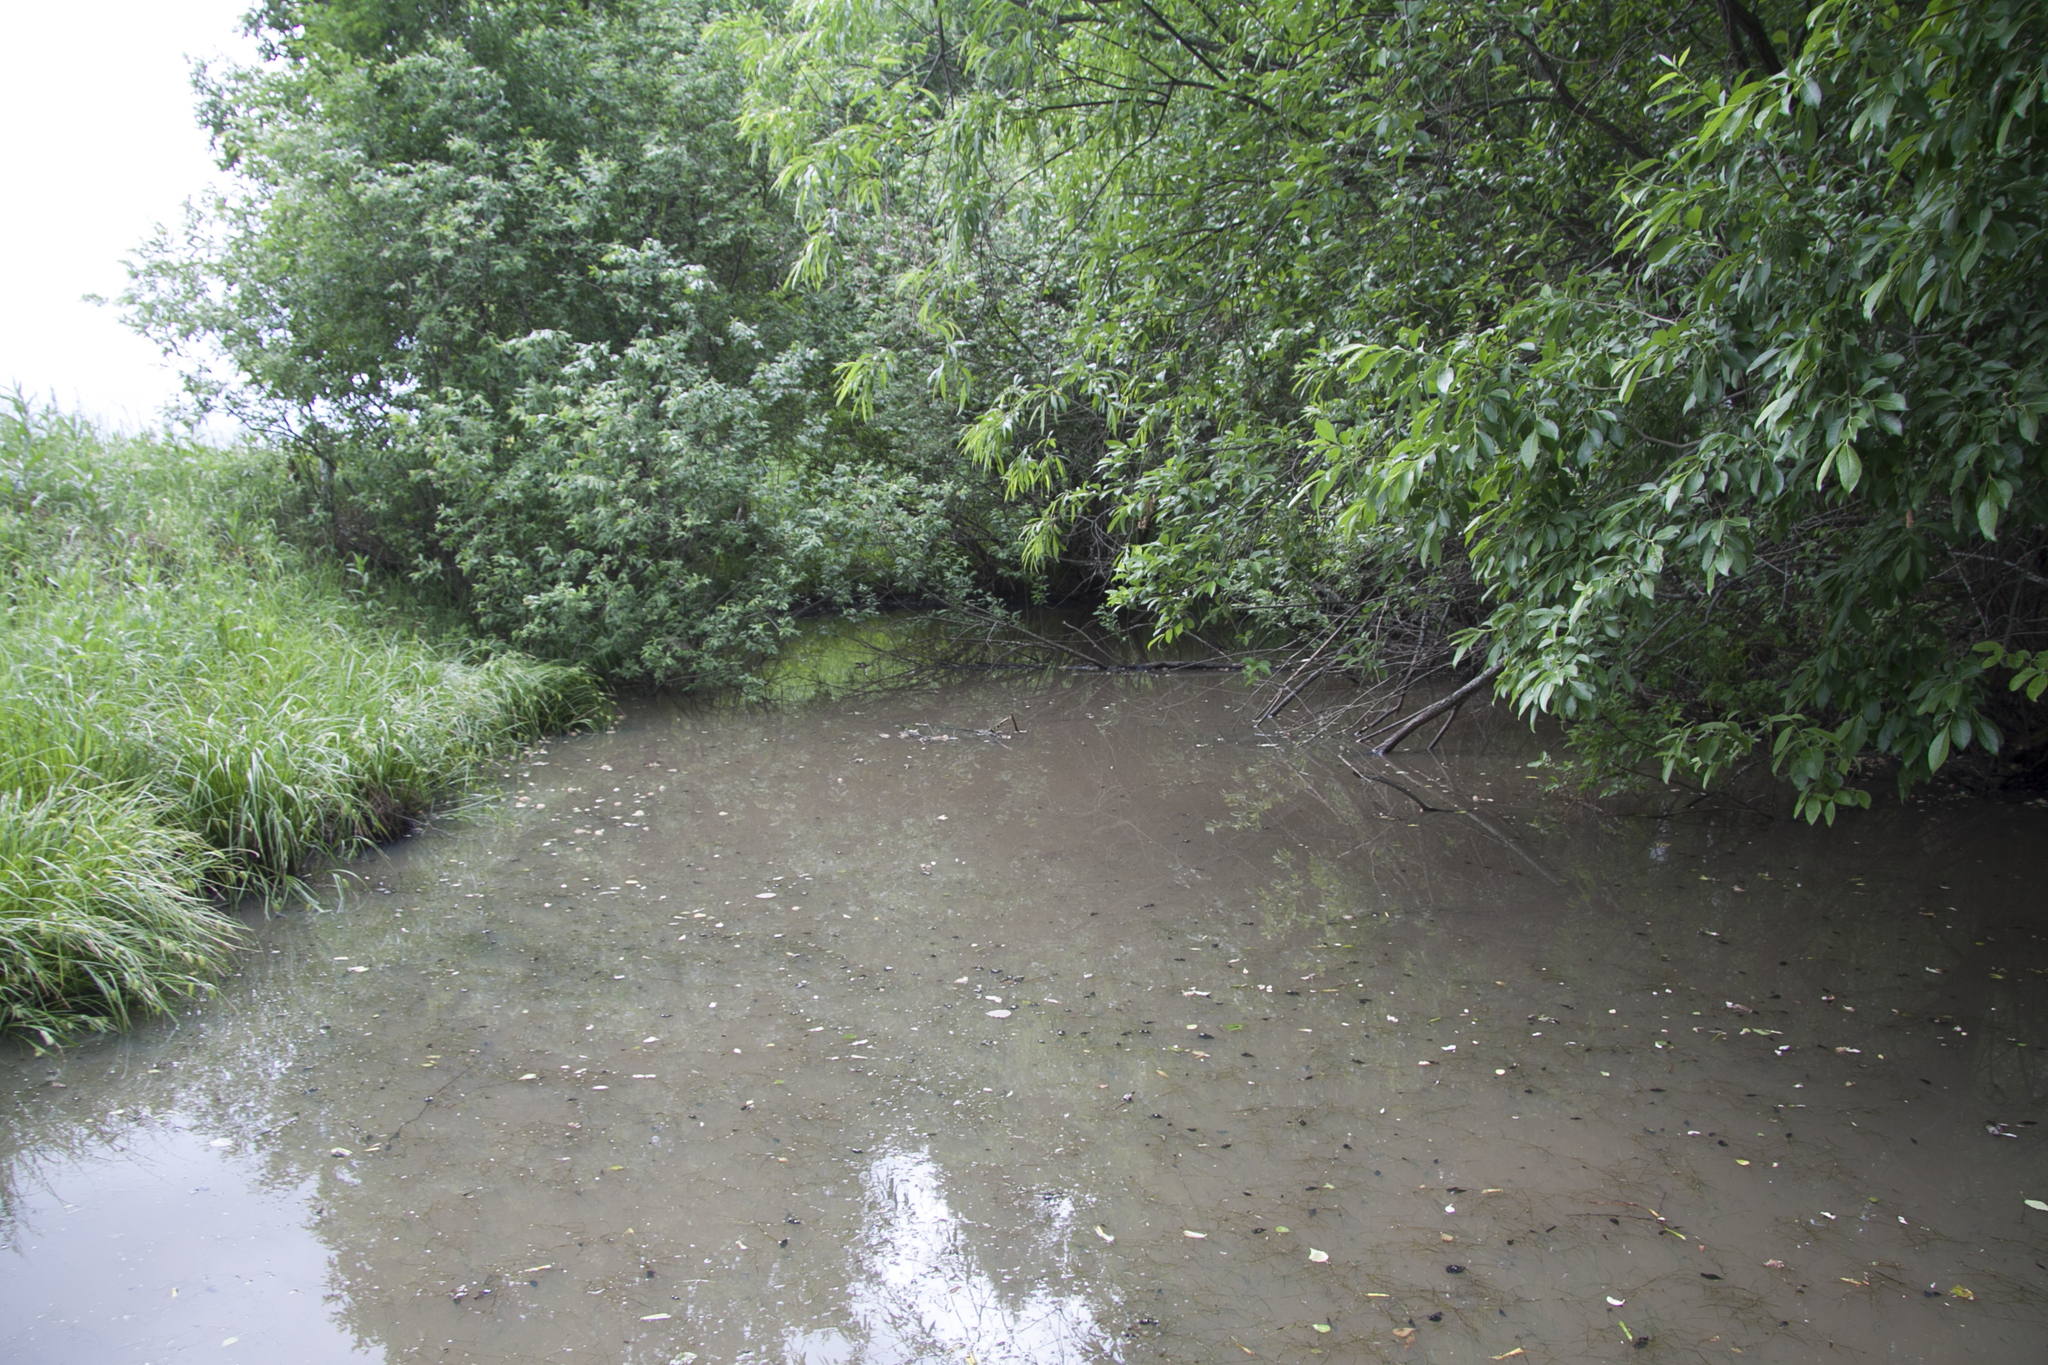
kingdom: Animalia
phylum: Chordata
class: Amphibia
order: Anura
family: Ranidae
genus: Rana
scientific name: Rana temporaria
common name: Common frog
